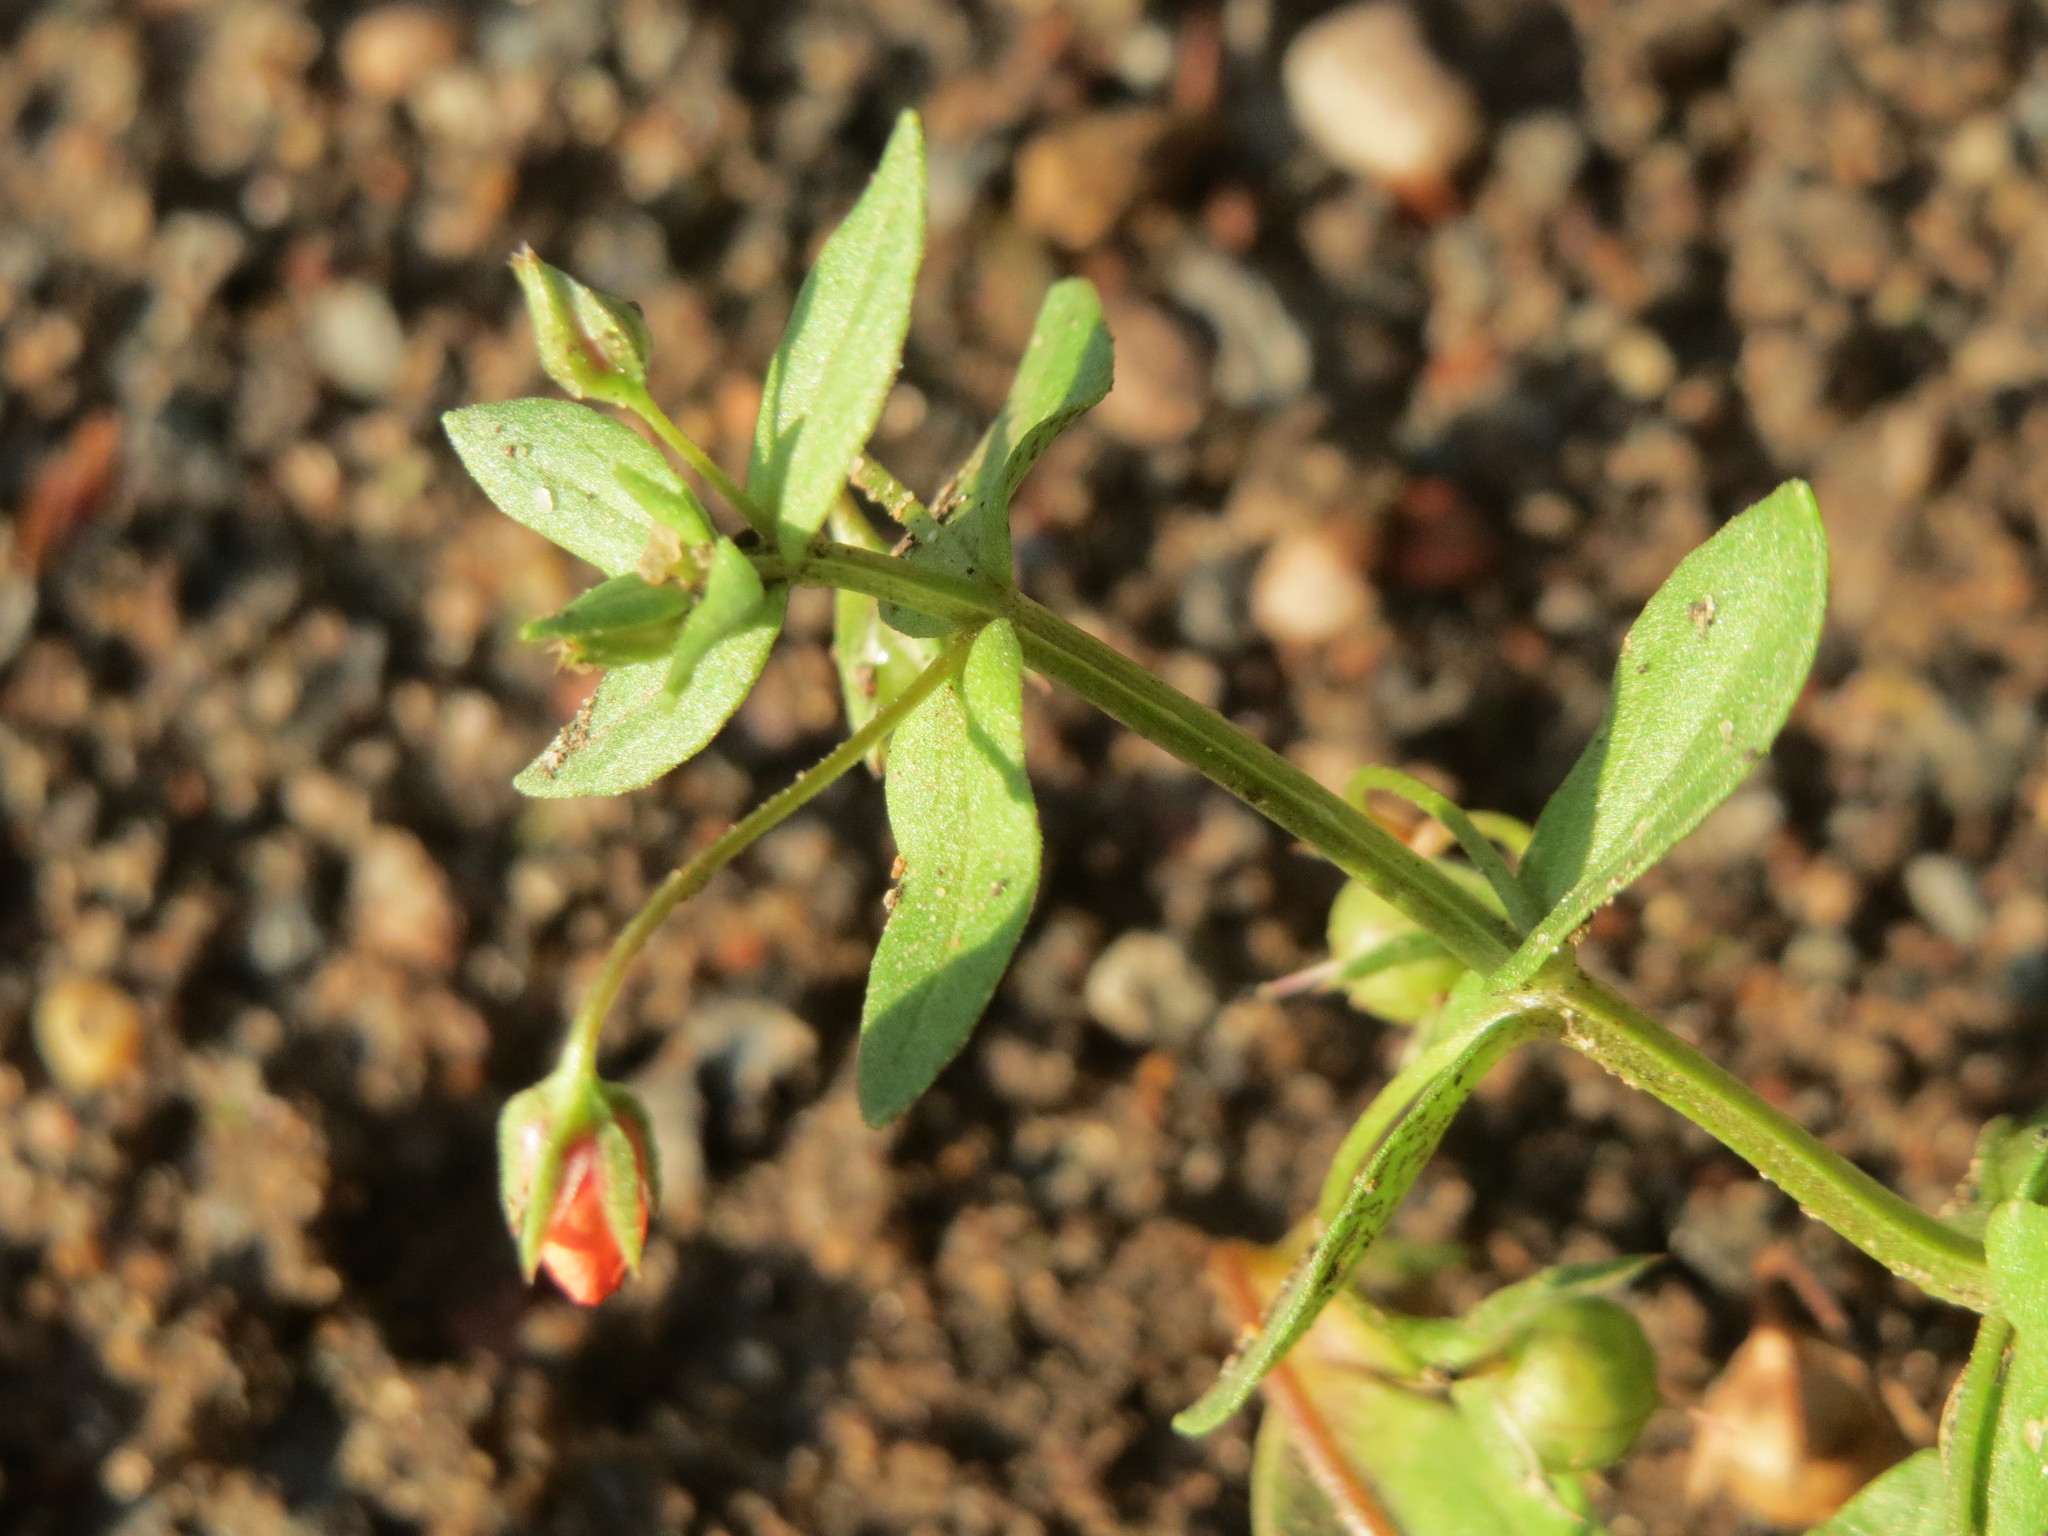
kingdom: Plantae
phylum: Tracheophyta
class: Magnoliopsida
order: Ericales
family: Primulaceae
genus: Lysimachia
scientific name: Lysimachia arvensis
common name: Scarlet pimpernel
